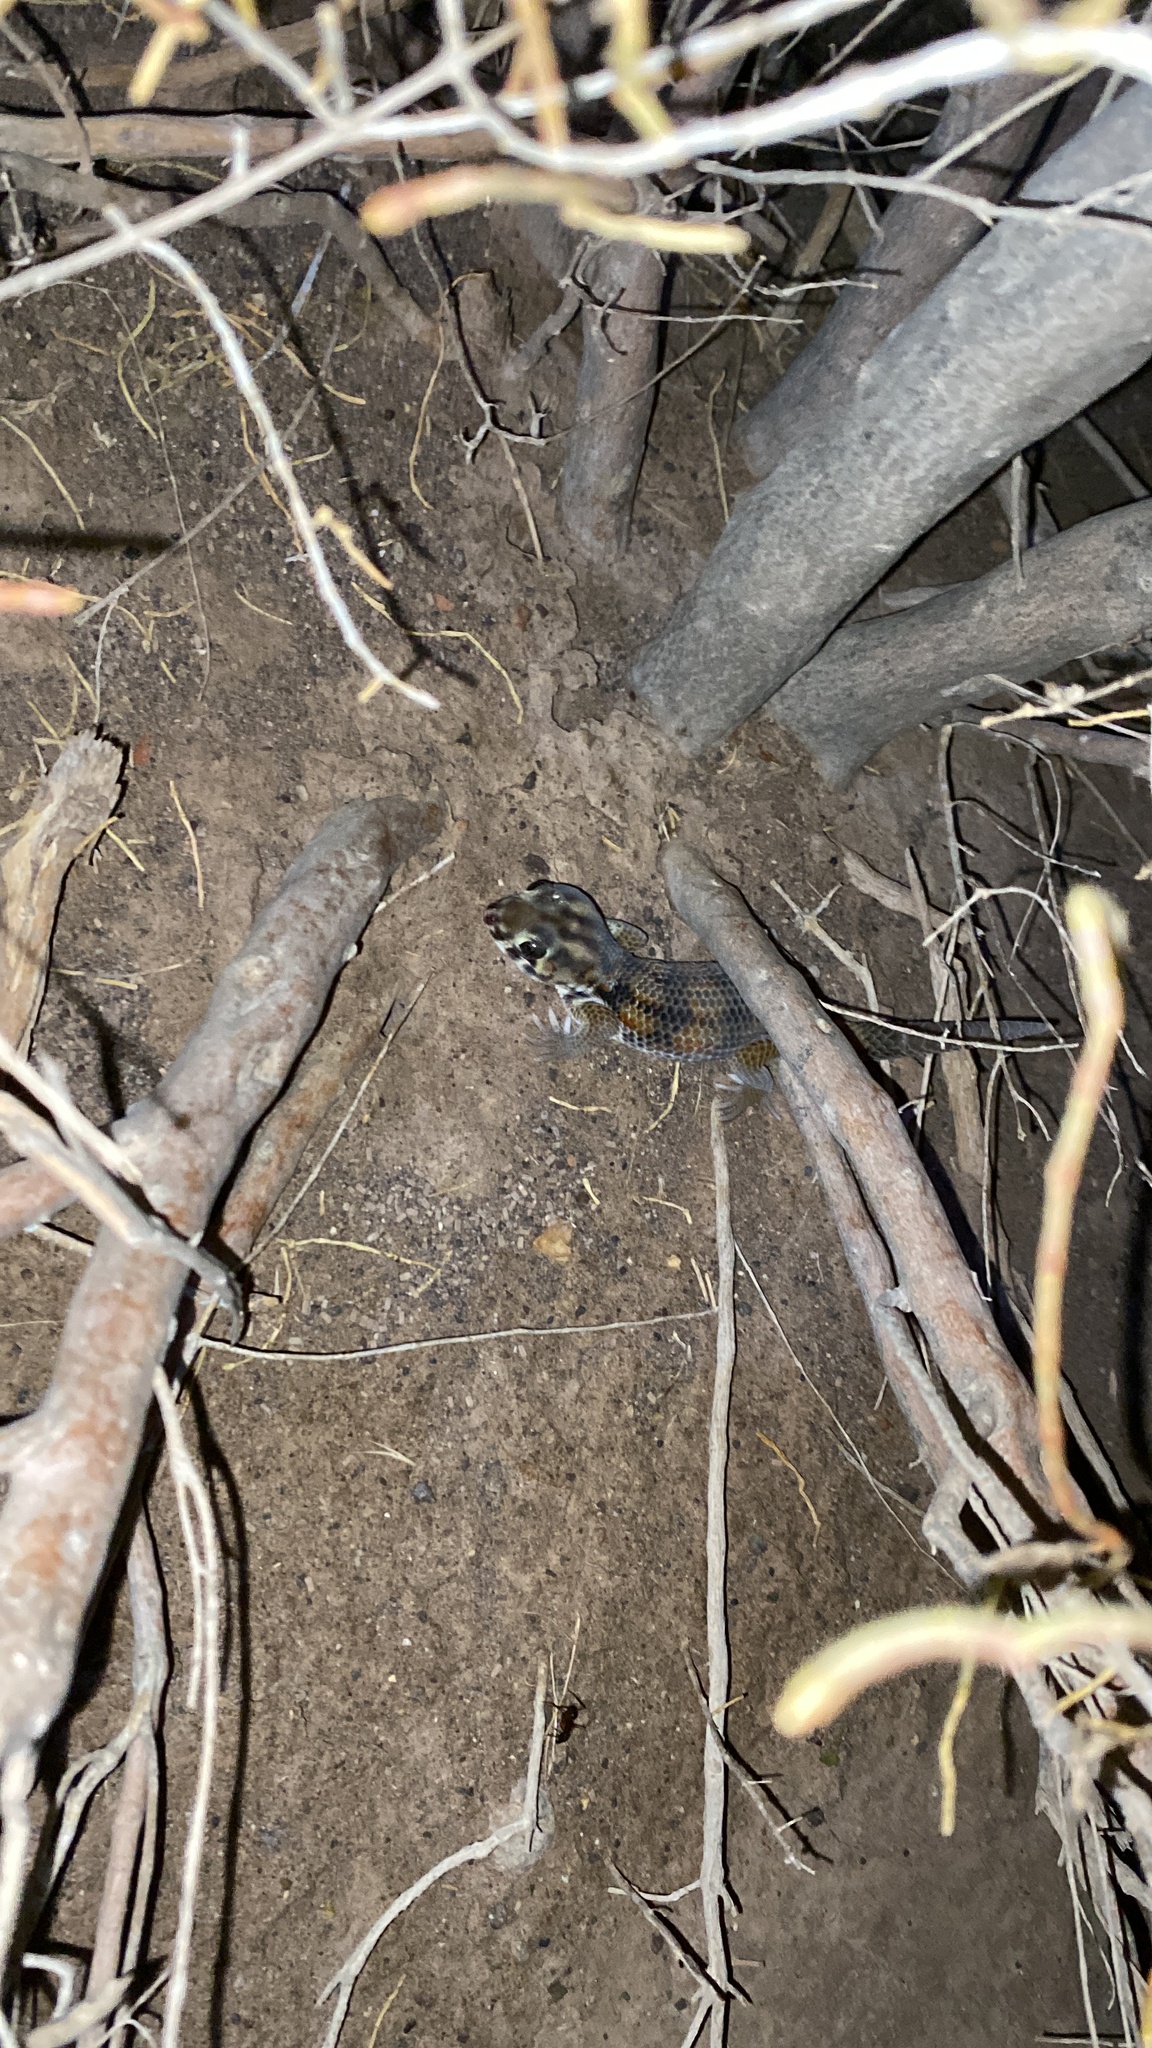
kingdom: Animalia
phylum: Chordata
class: Squamata
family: Sphaerodactylidae
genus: Teratoscincus
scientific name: Teratoscincus keyserlingii
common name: Frog-eyed gecko
